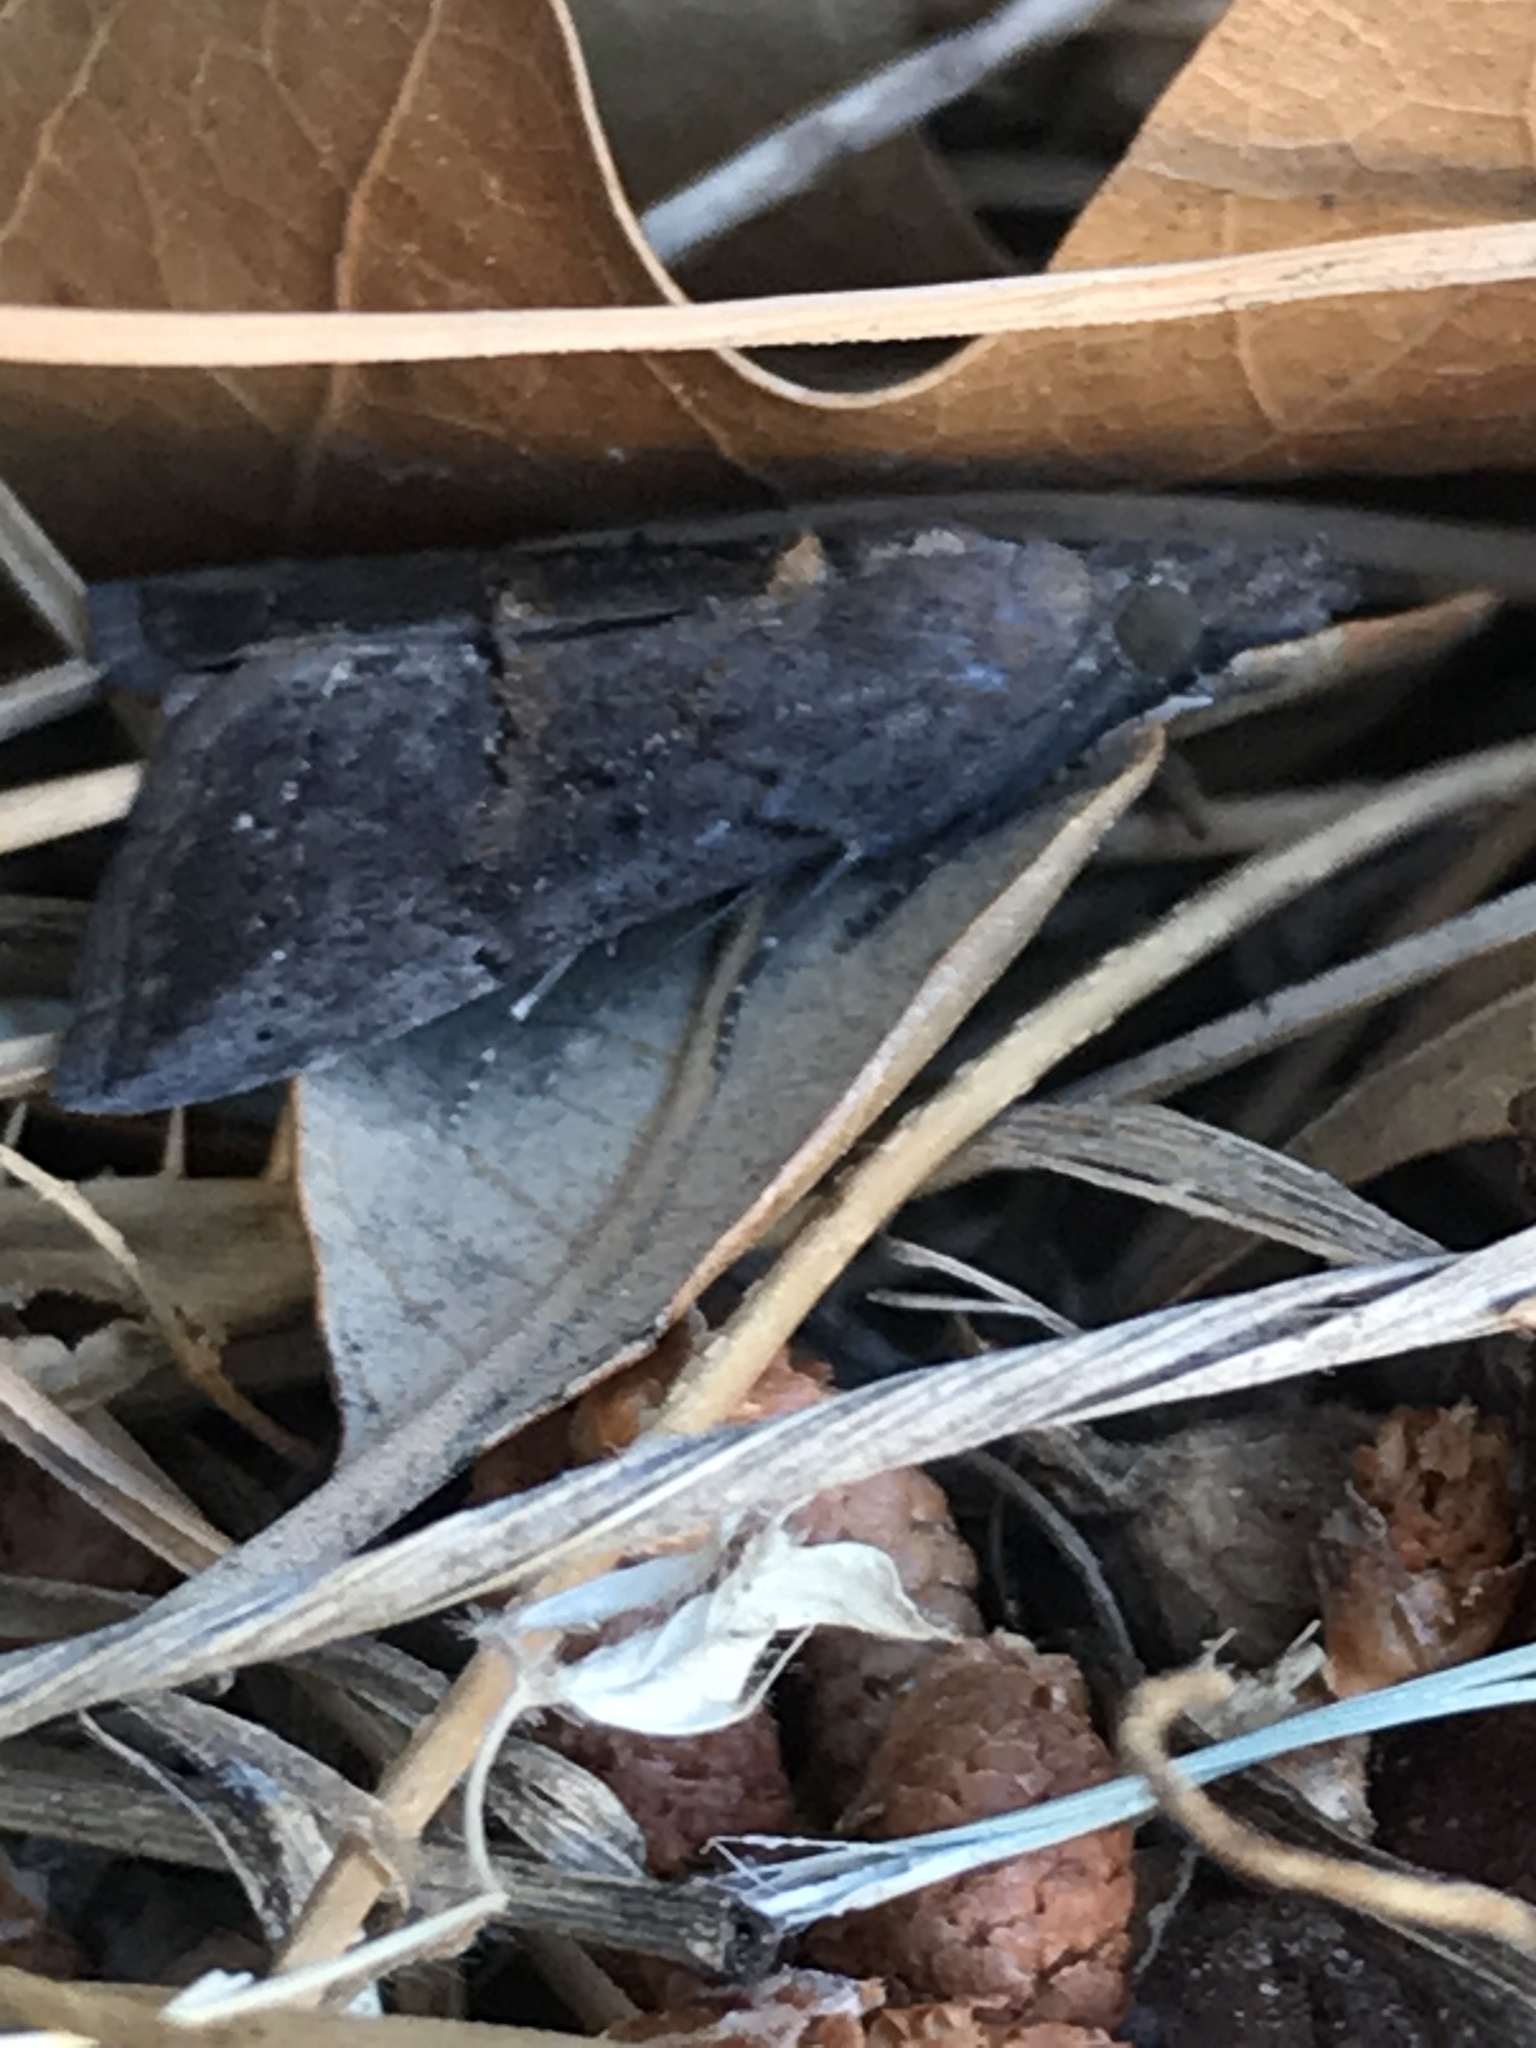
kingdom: Animalia
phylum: Arthropoda
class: Insecta
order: Lepidoptera
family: Erebidae
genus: Hypena
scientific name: Hypena scabra
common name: Green cloverworm
